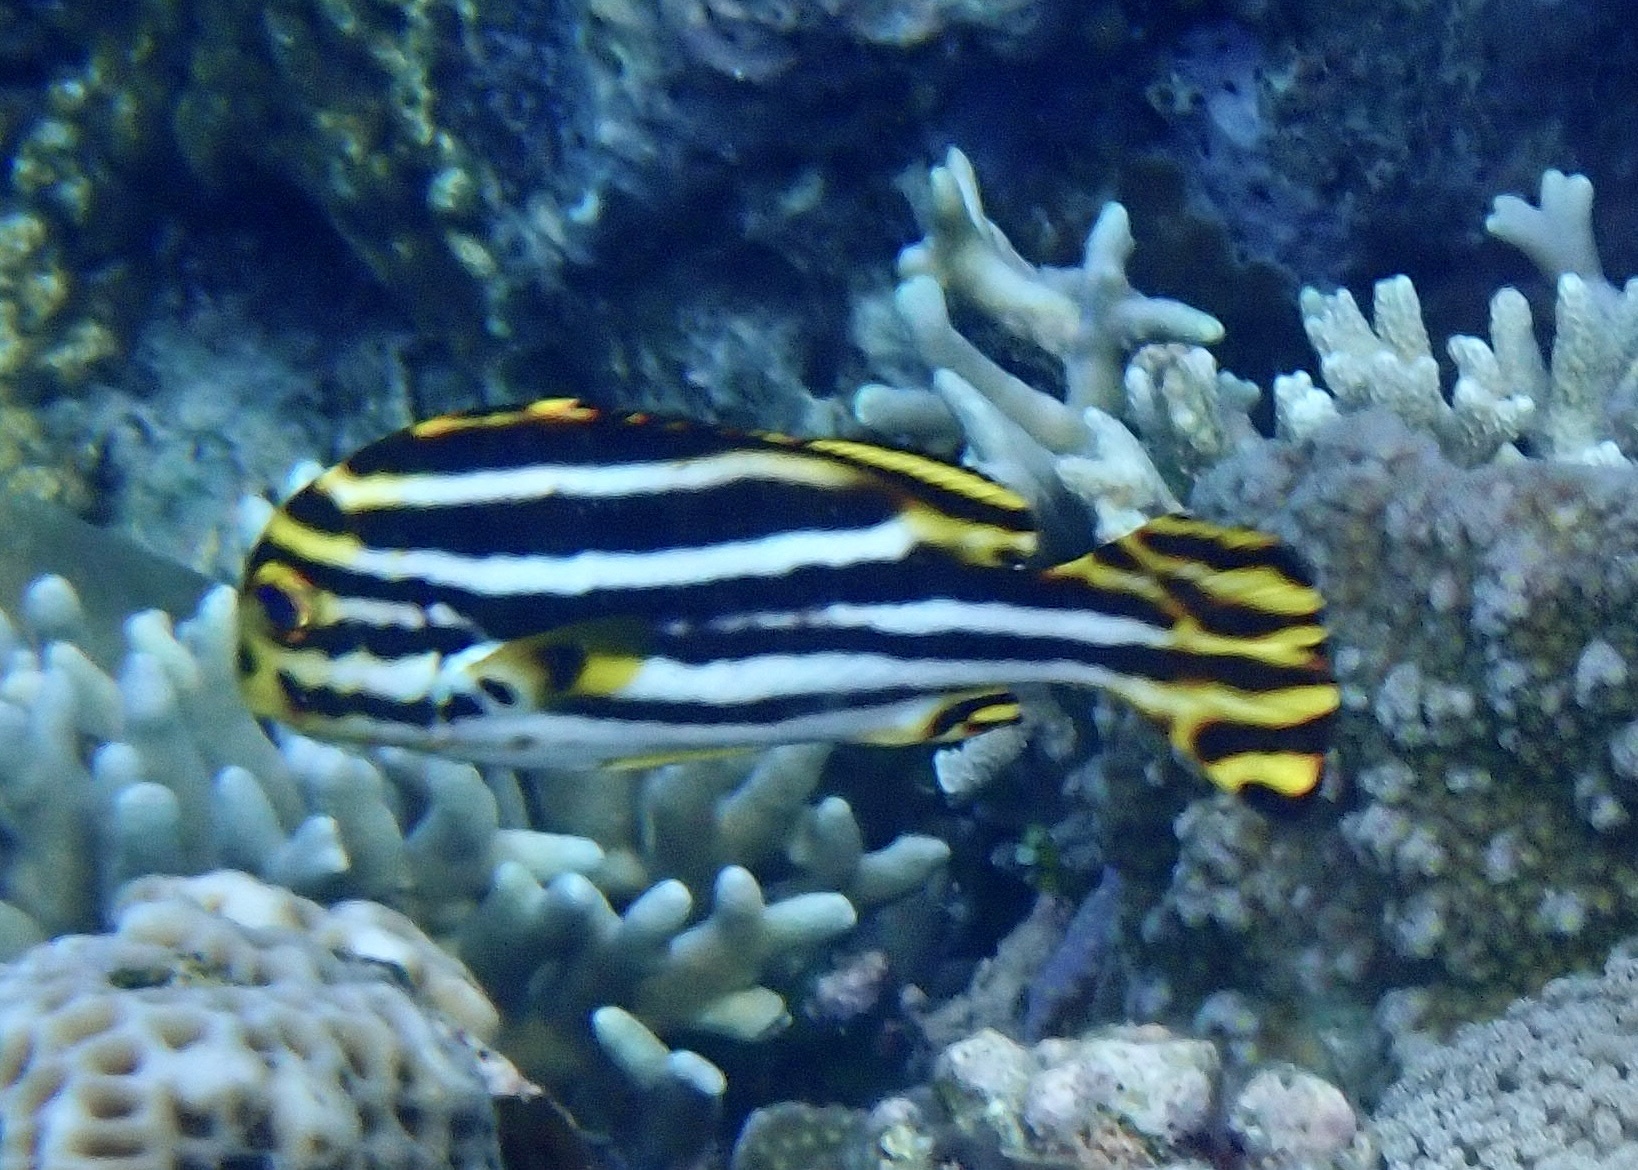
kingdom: Animalia
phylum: Chordata
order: Perciformes
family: Haemulidae
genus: Plectorhinchus
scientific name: Plectorhinchus vittatus
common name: Oriental sweetlips
